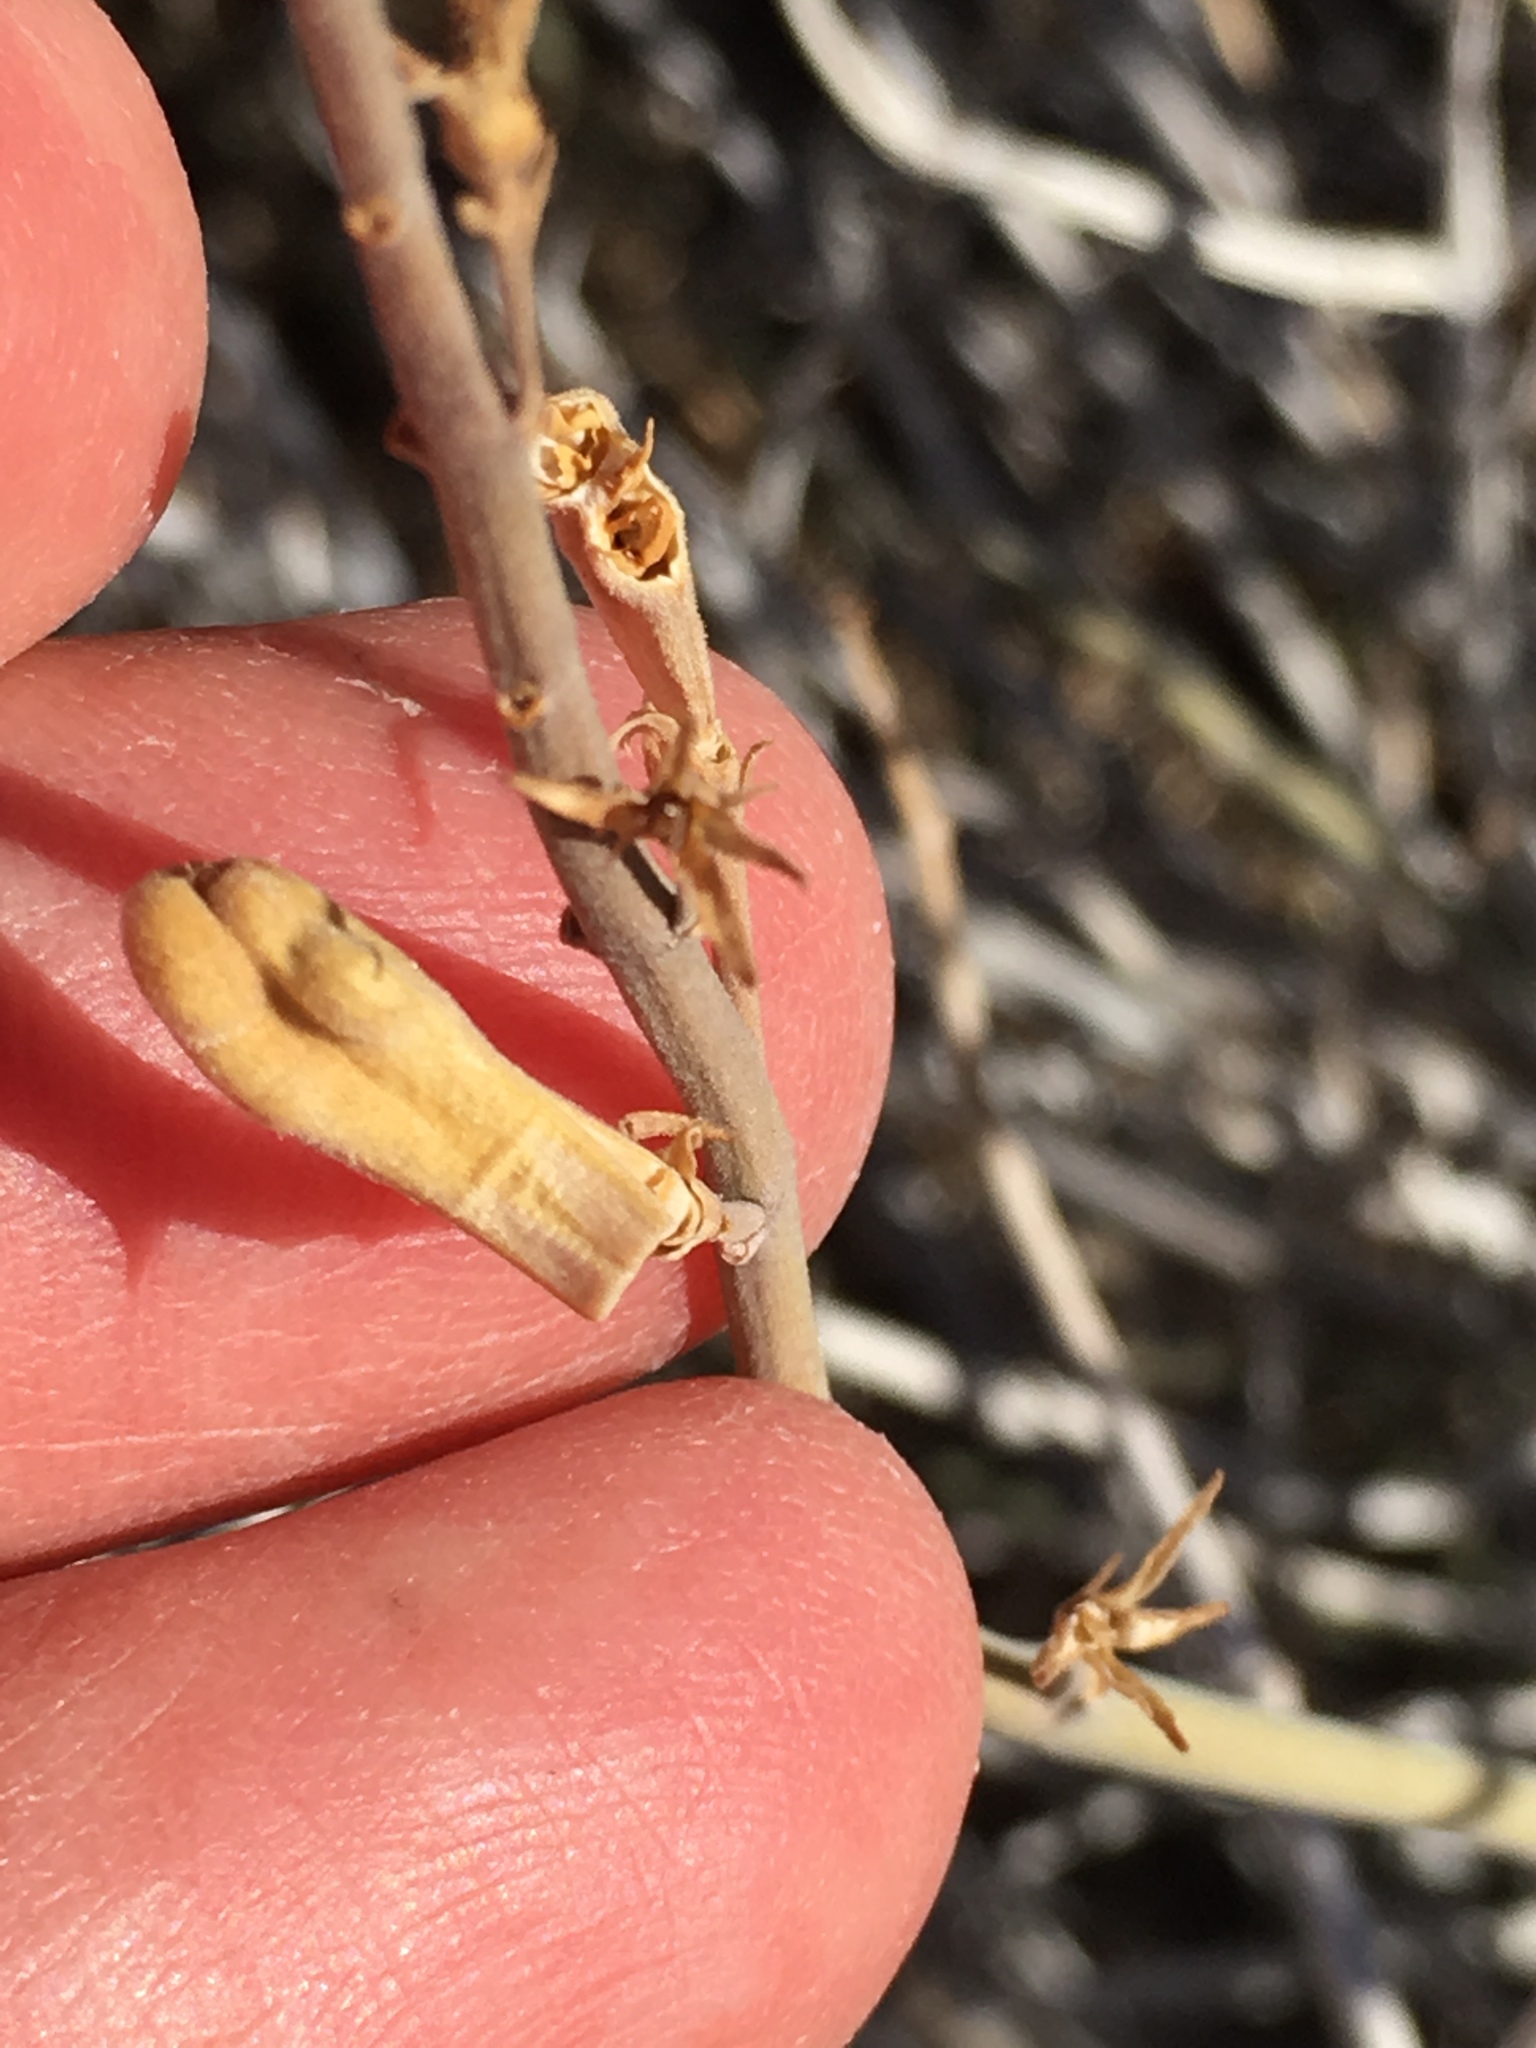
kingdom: Plantae
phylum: Tracheophyta
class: Magnoliopsida
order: Lamiales
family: Acanthaceae
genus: Justicia
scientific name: Justicia californica
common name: Chuparosa-honeysuckle
